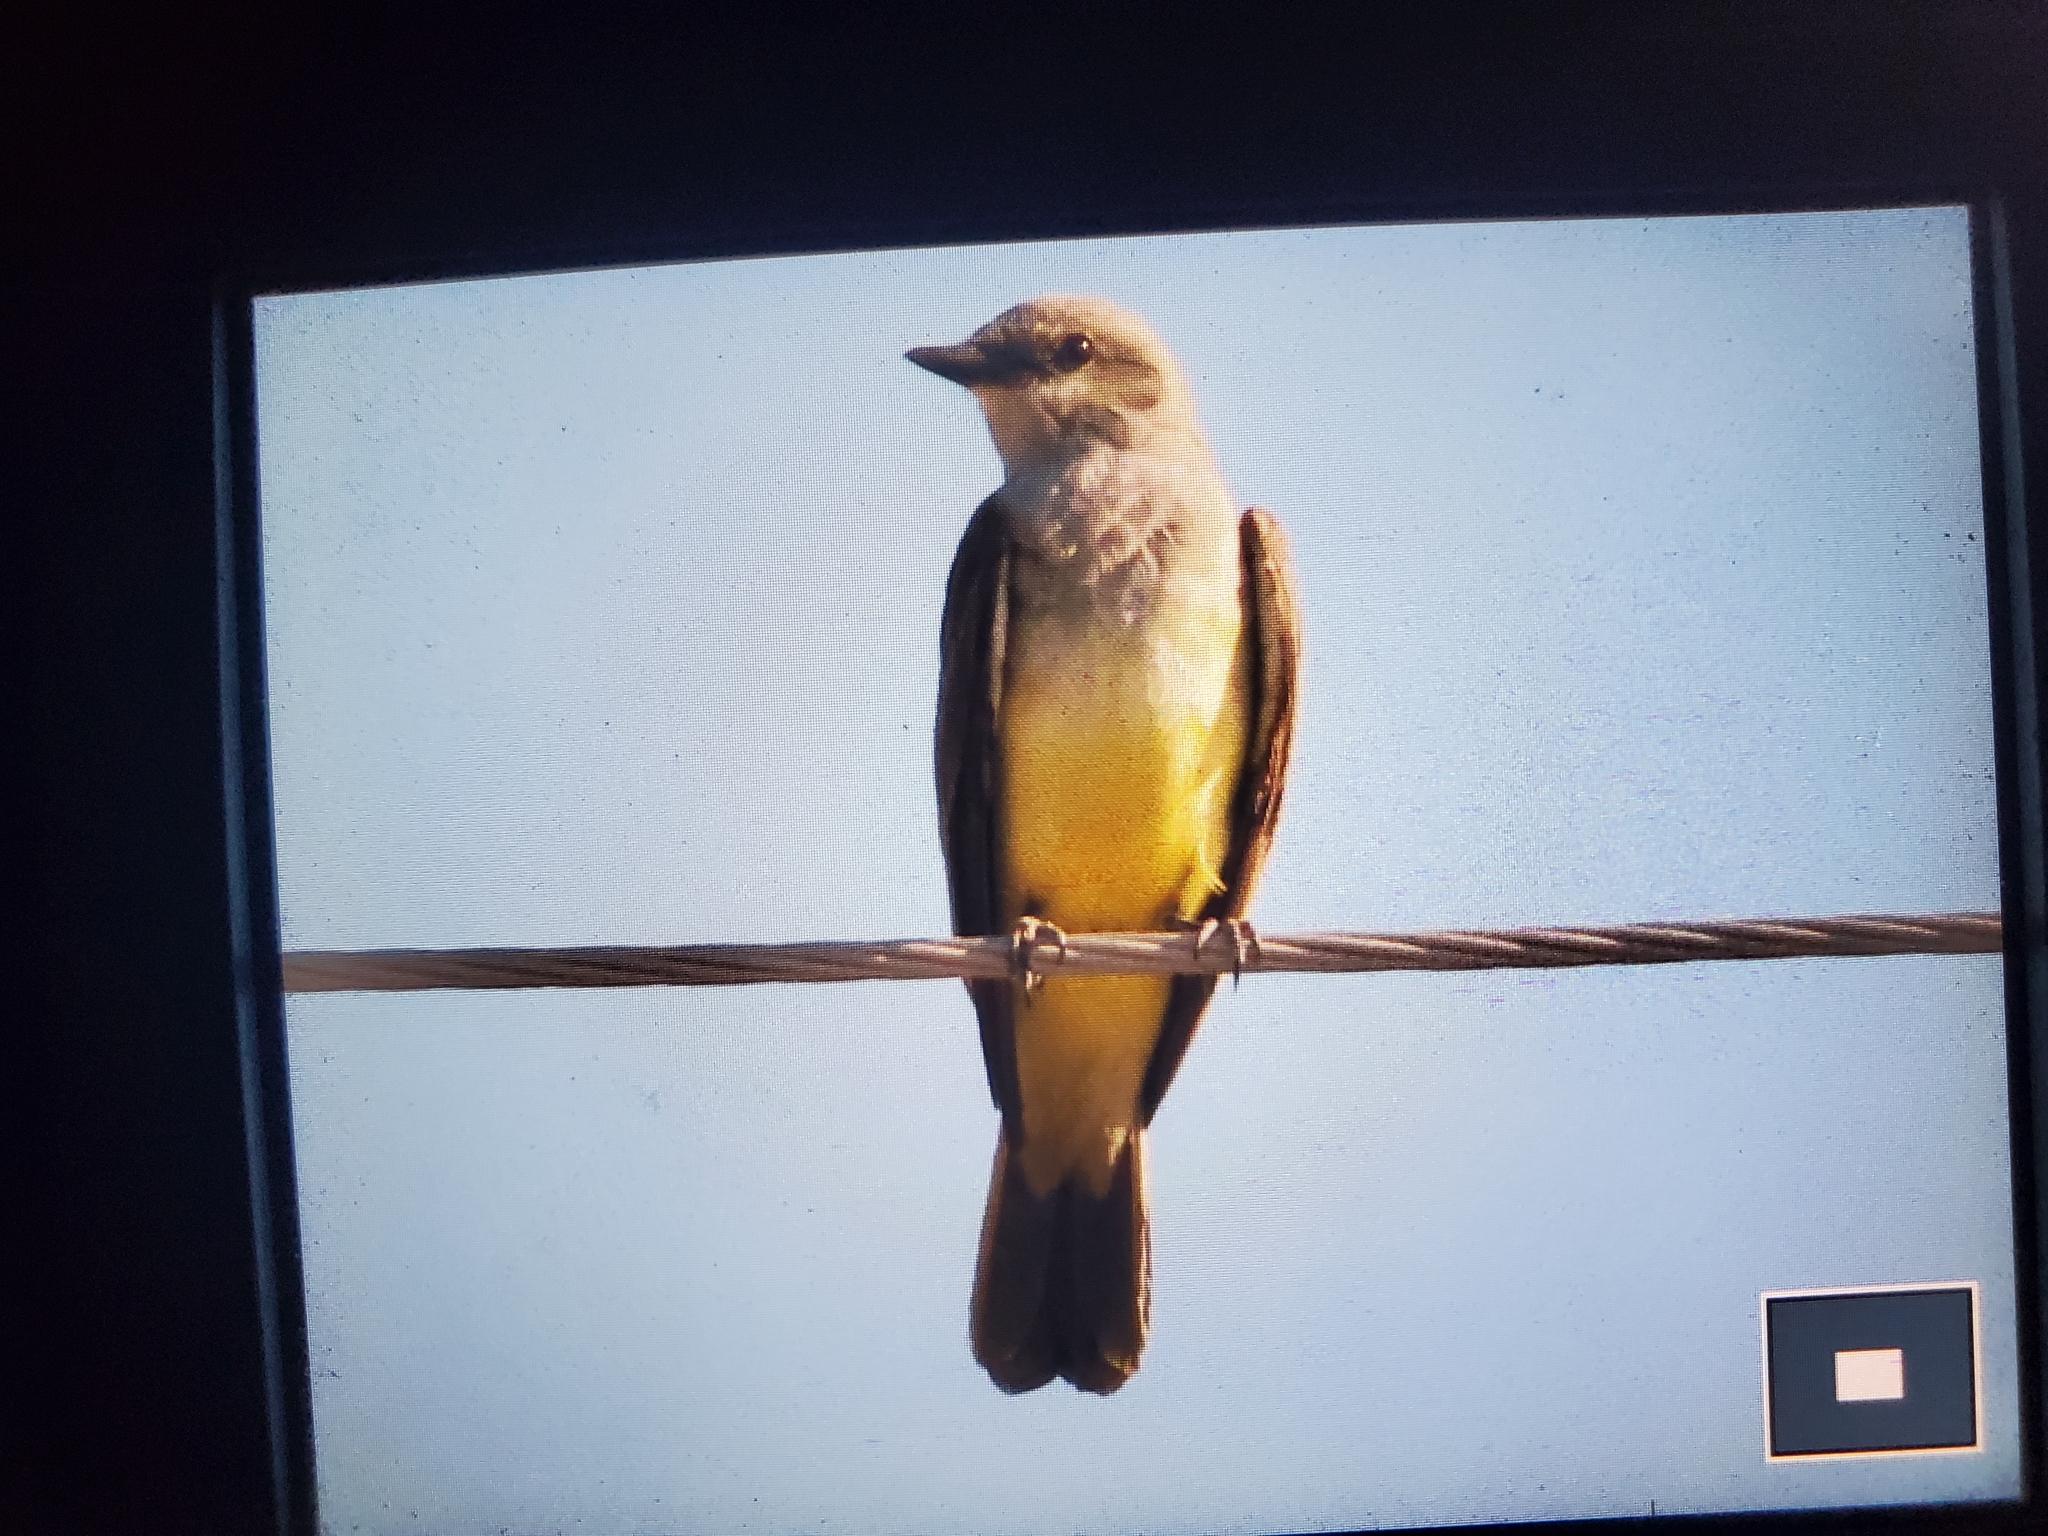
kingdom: Animalia
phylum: Chordata
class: Aves
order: Passeriformes
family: Tyrannidae
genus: Tyrannus
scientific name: Tyrannus verticalis
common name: Western kingbird
